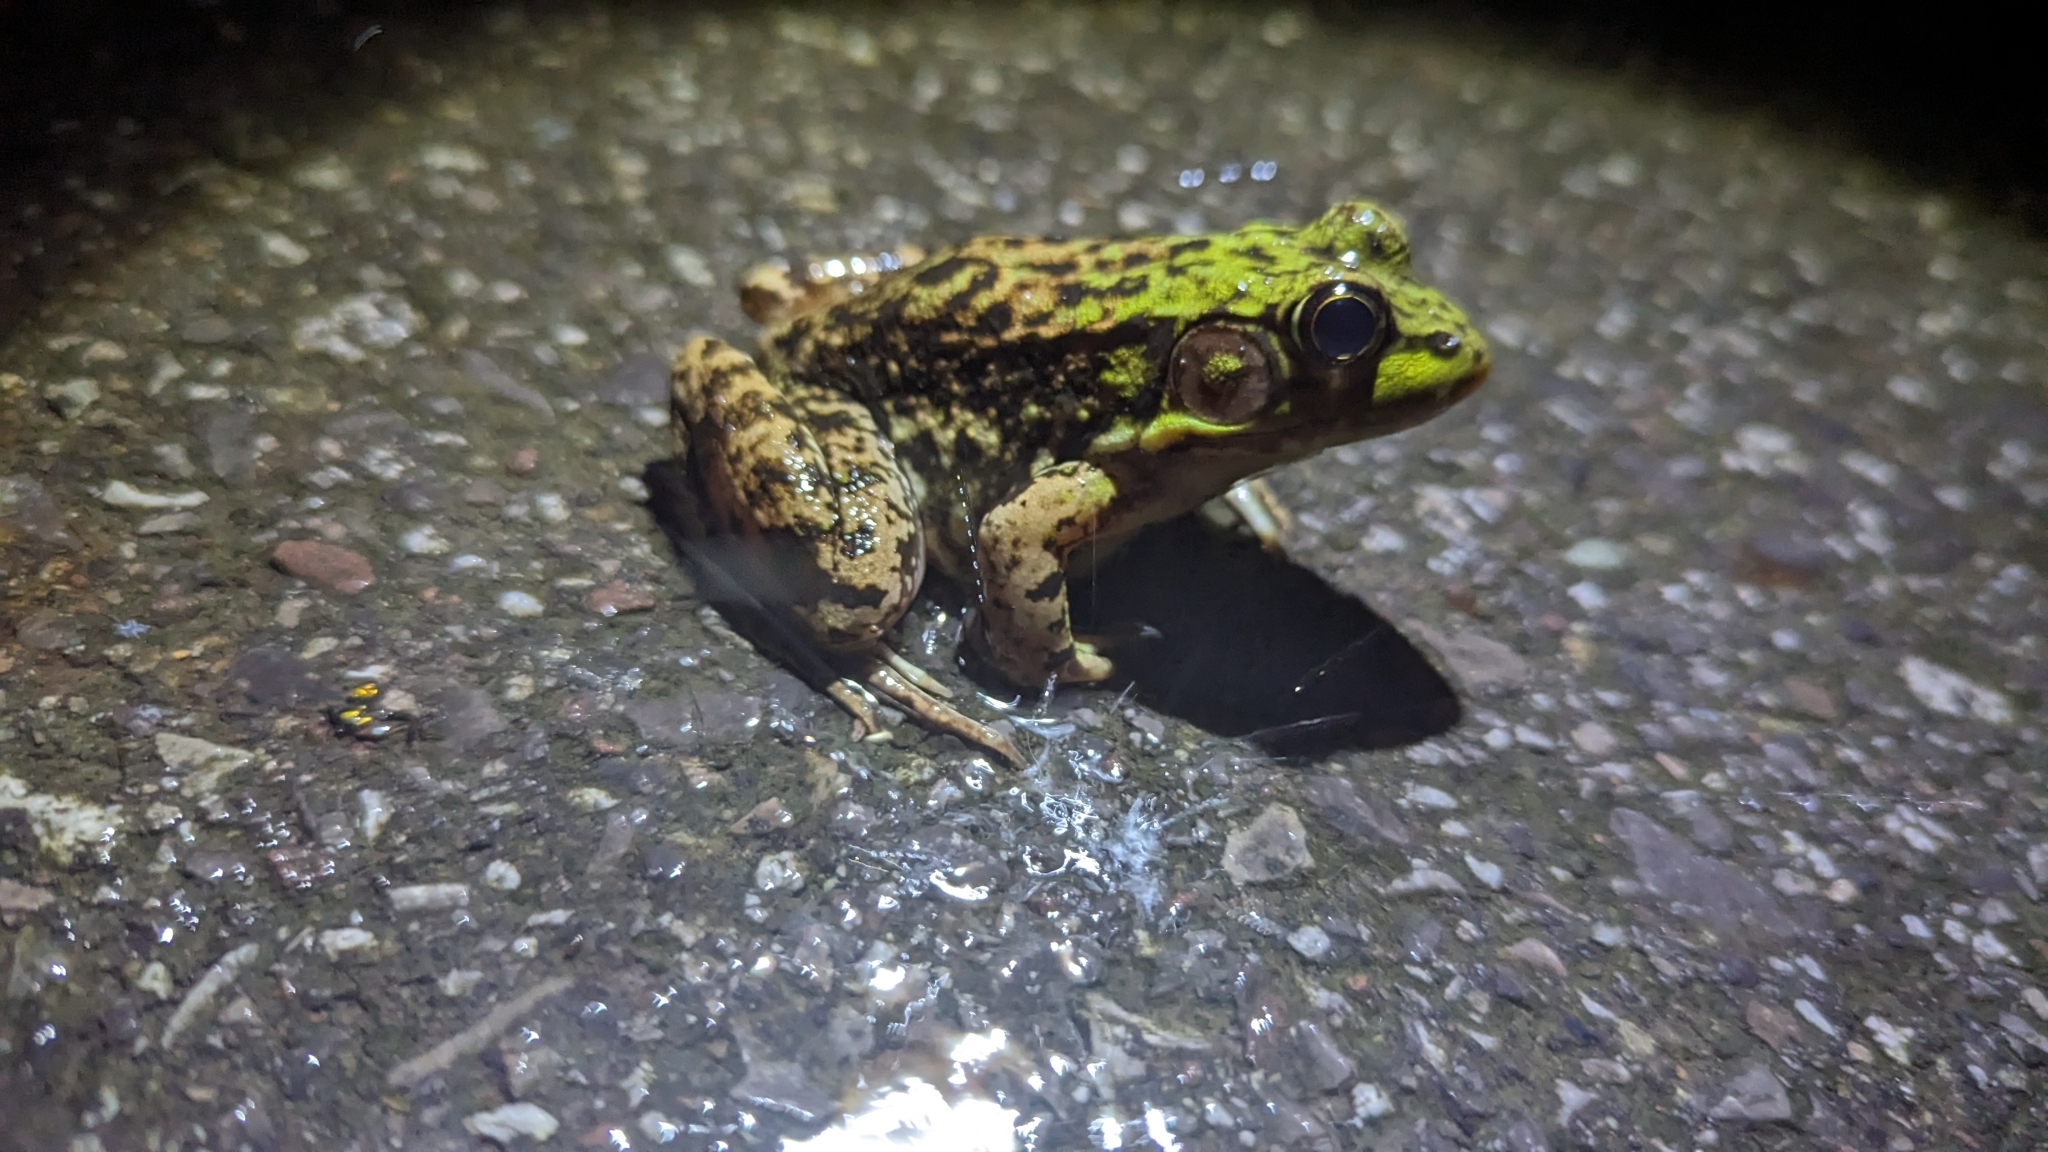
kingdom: Animalia
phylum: Chordata
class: Amphibia
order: Anura
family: Ranidae
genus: Lithobates
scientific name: Lithobates clamitans
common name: Green frog
